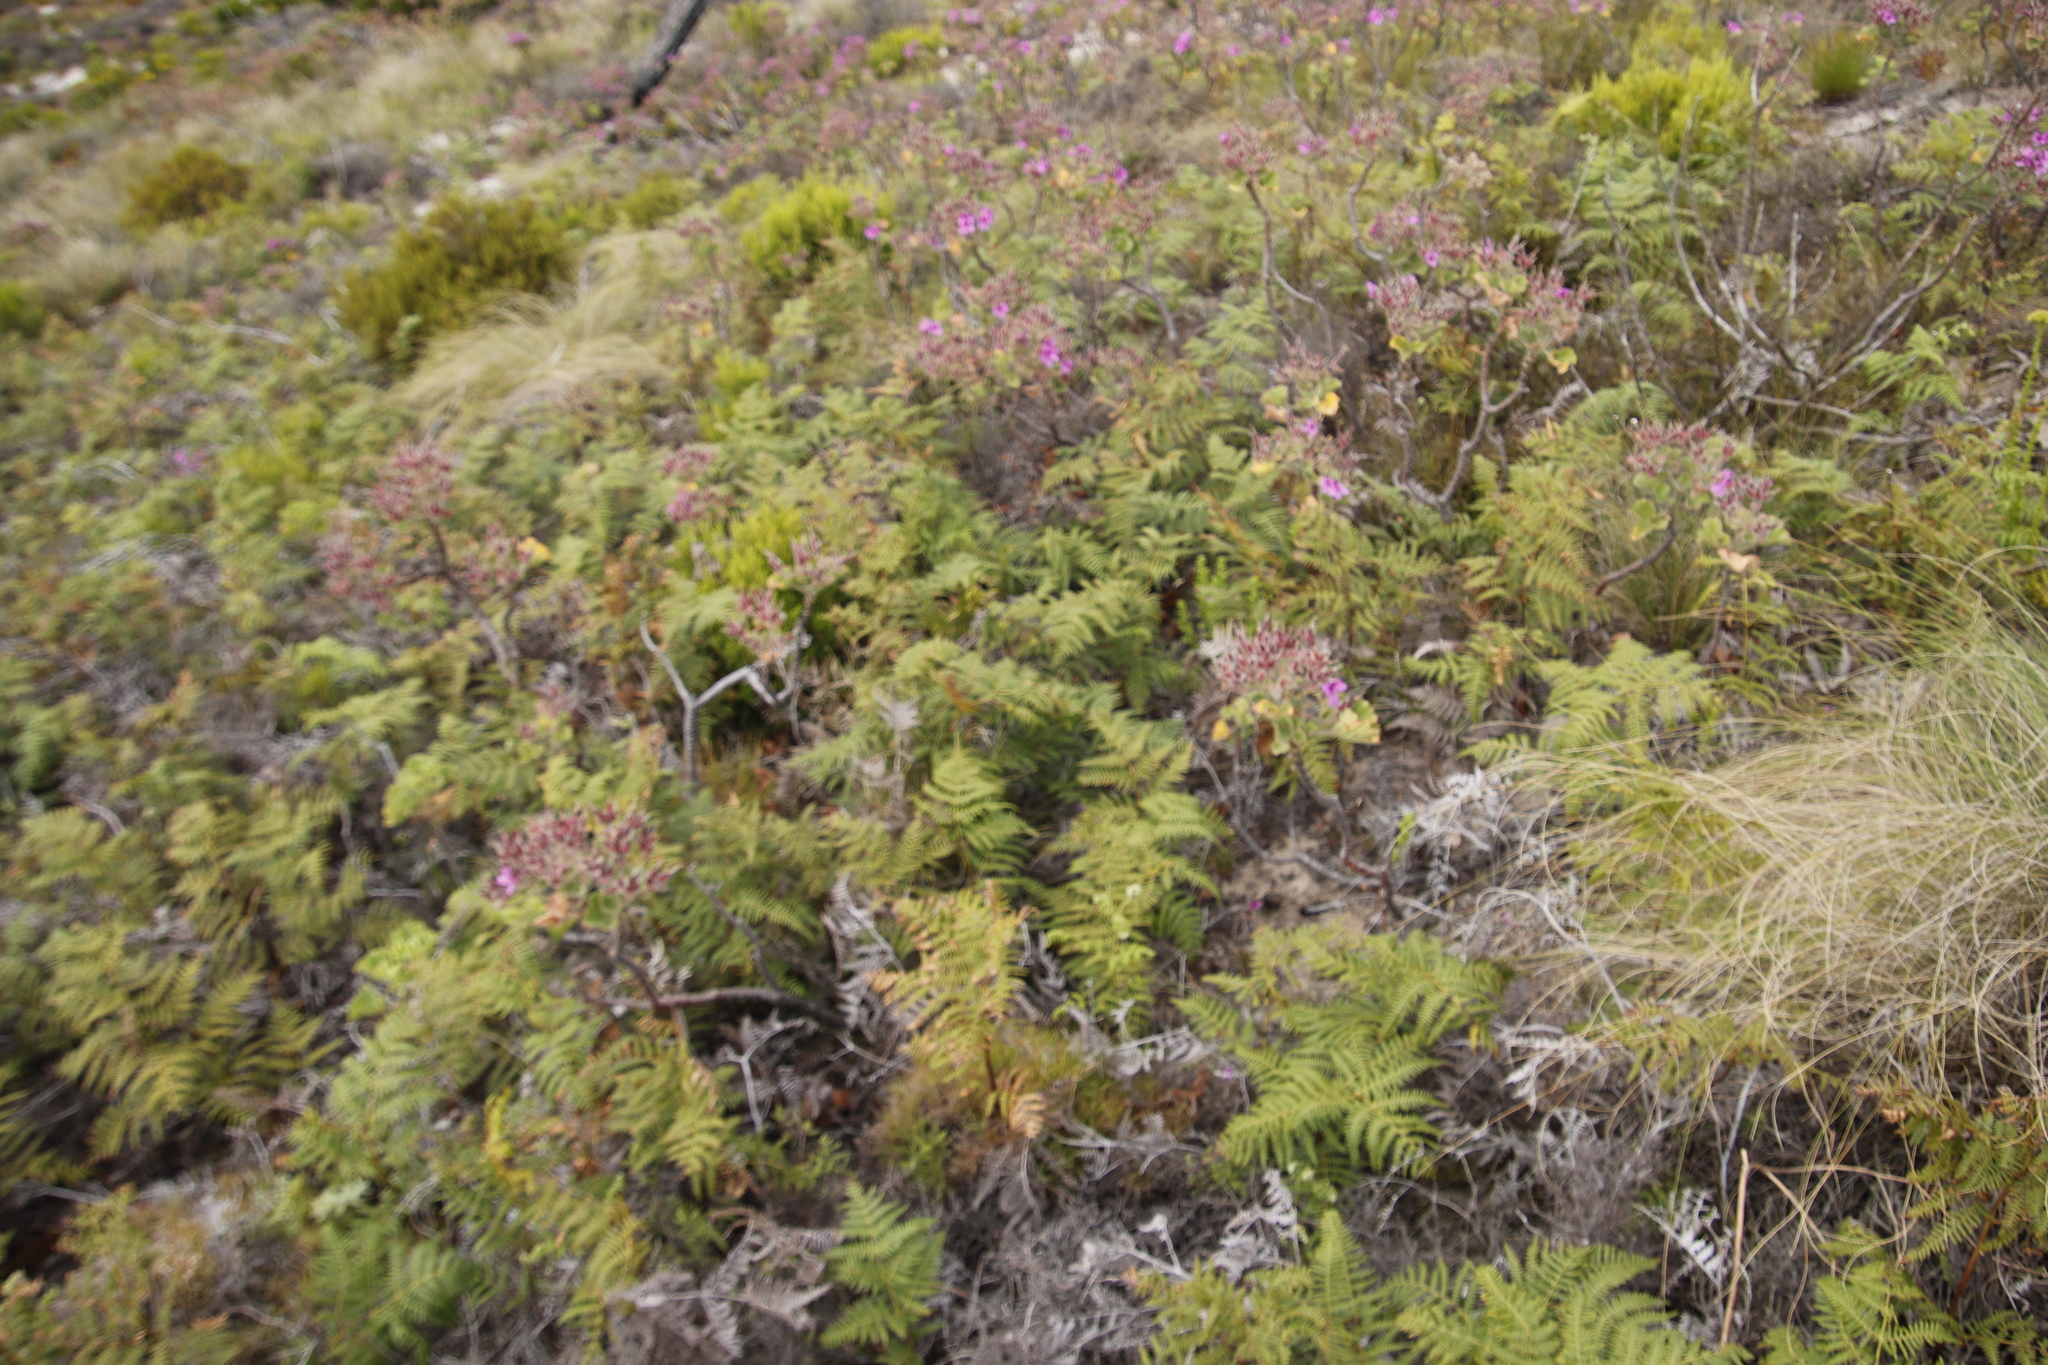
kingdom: Plantae
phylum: Tracheophyta
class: Polypodiopsida
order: Polypodiales
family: Dennstaedtiaceae
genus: Pteridium
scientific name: Pteridium aquilinum
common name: Bracken
